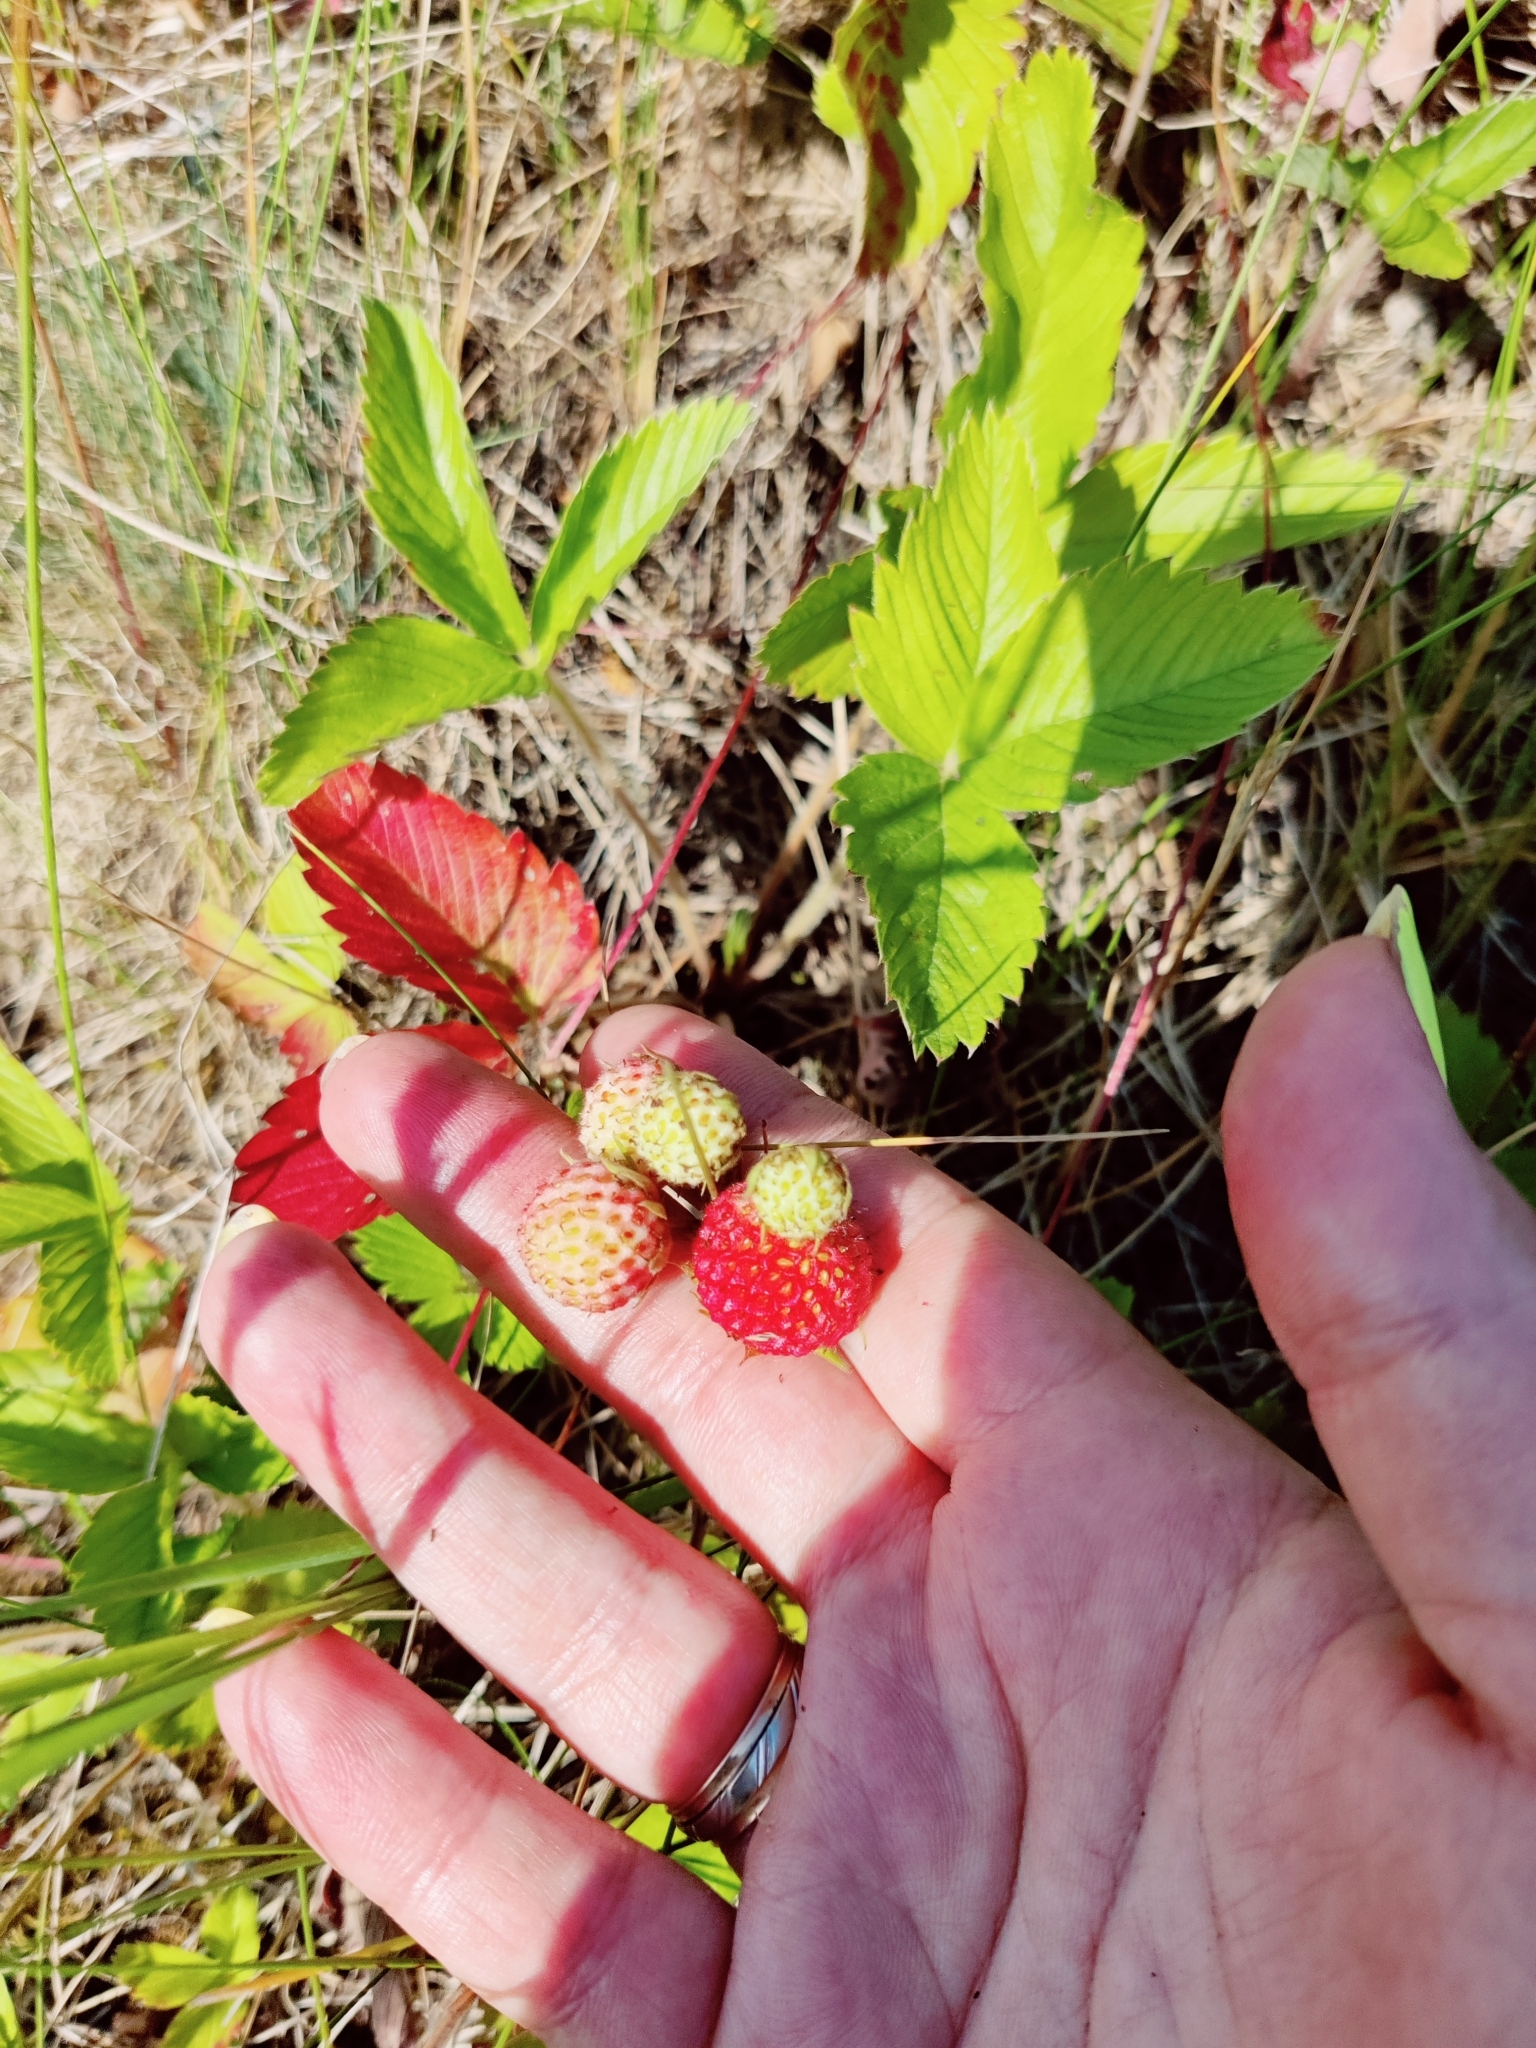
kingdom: Plantae
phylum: Tracheophyta
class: Magnoliopsida
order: Rosales
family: Rosaceae
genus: Fragaria
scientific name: Fragaria viridis
